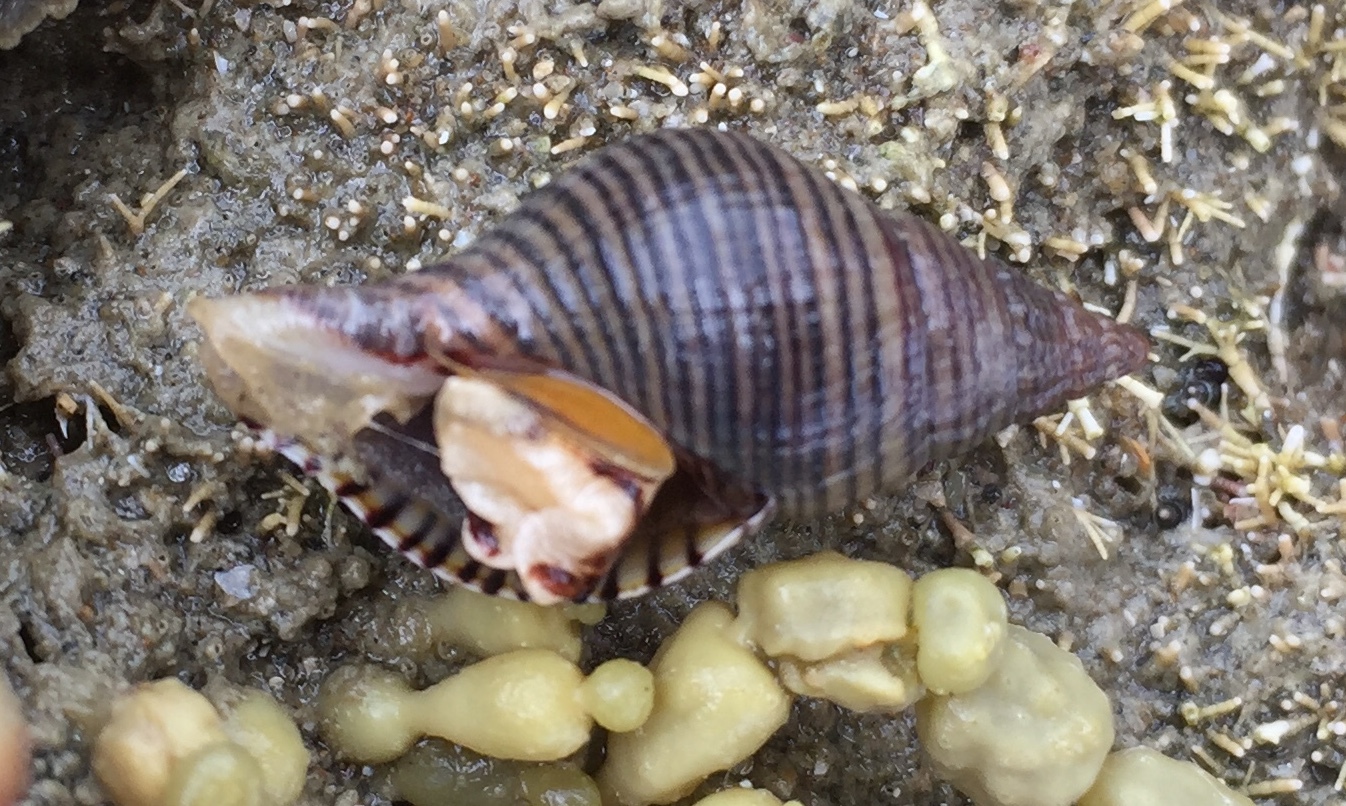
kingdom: Animalia
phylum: Mollusca
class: Gastropoda
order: Neogastropoda
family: Tudiclidae
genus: Buccinulum
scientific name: Buccinulum linea
